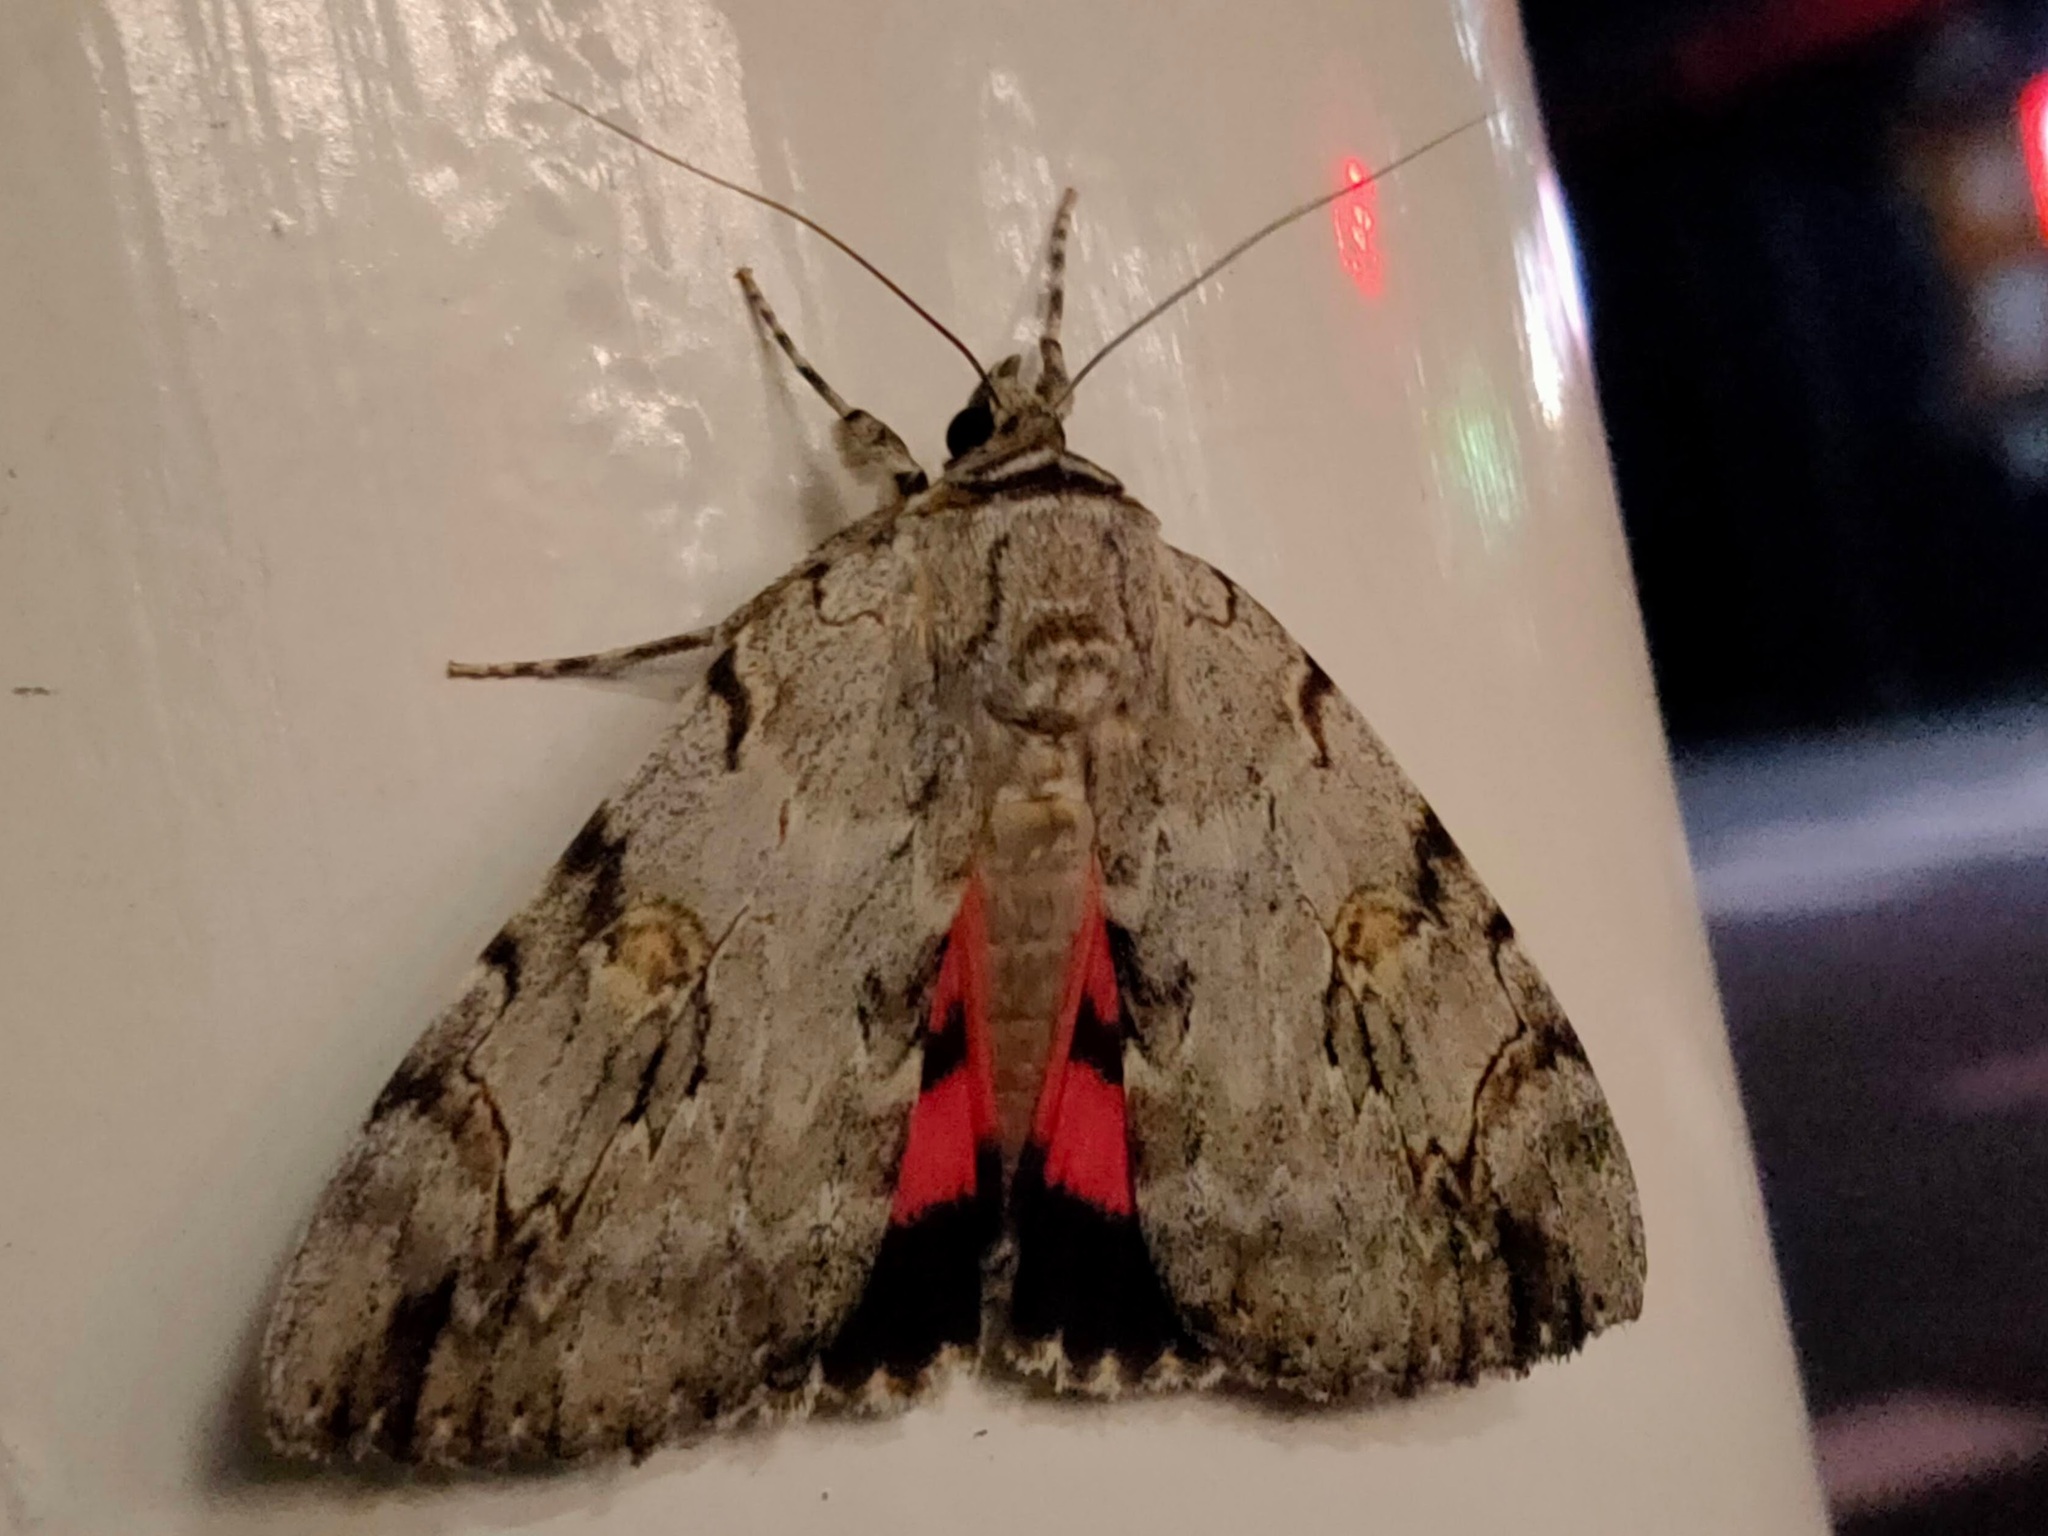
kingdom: Animalia
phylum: Arthropoda
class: Insecta
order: Lepidoptera
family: Erebidae
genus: Catocala
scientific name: Catocala electa
